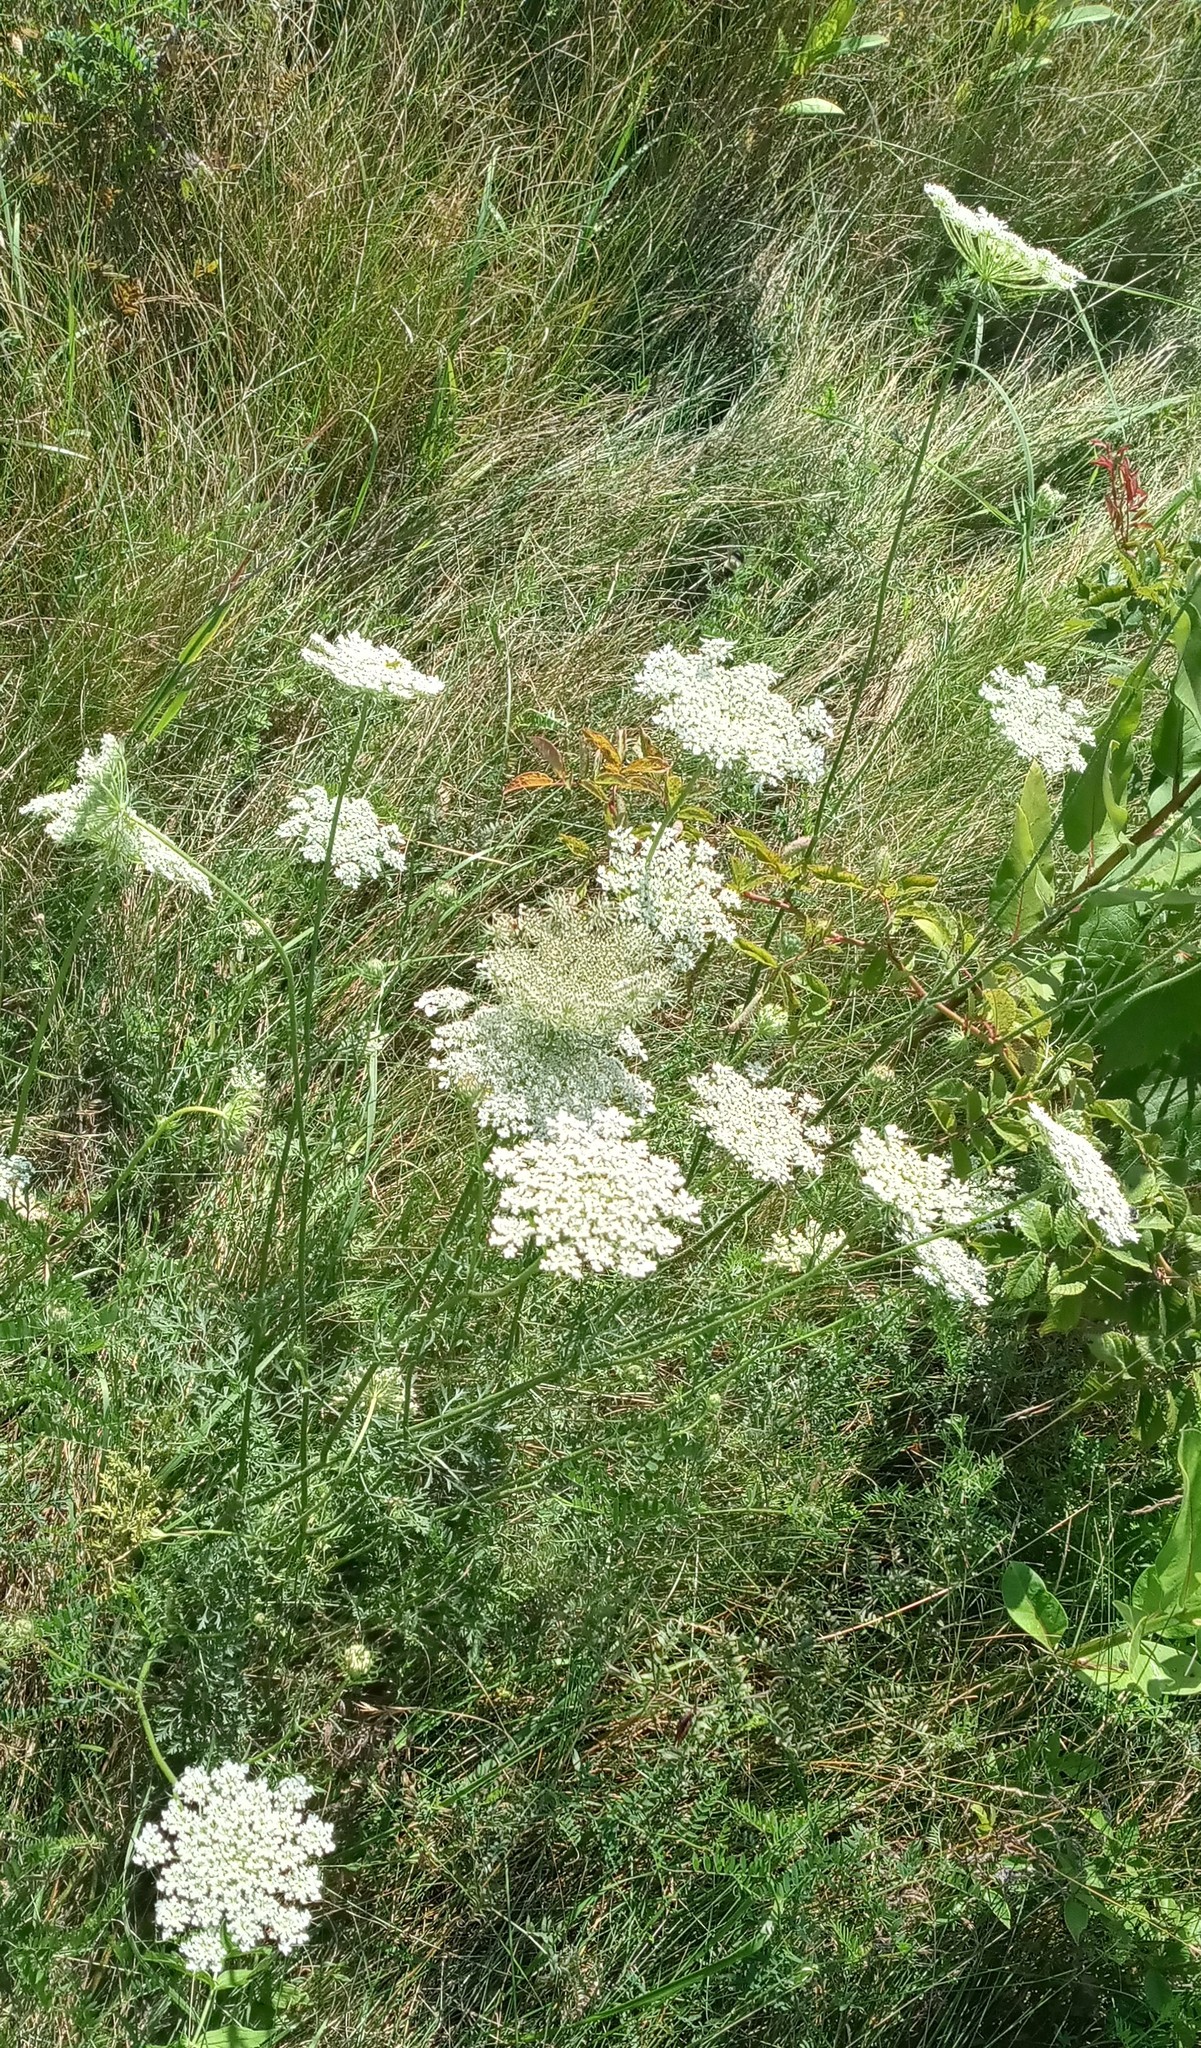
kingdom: Plantae
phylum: Tracheophyta
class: Magnoliopsida
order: Apiales
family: Apiaceae
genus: Daucus
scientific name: Daucus carota
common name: Wild carrot
